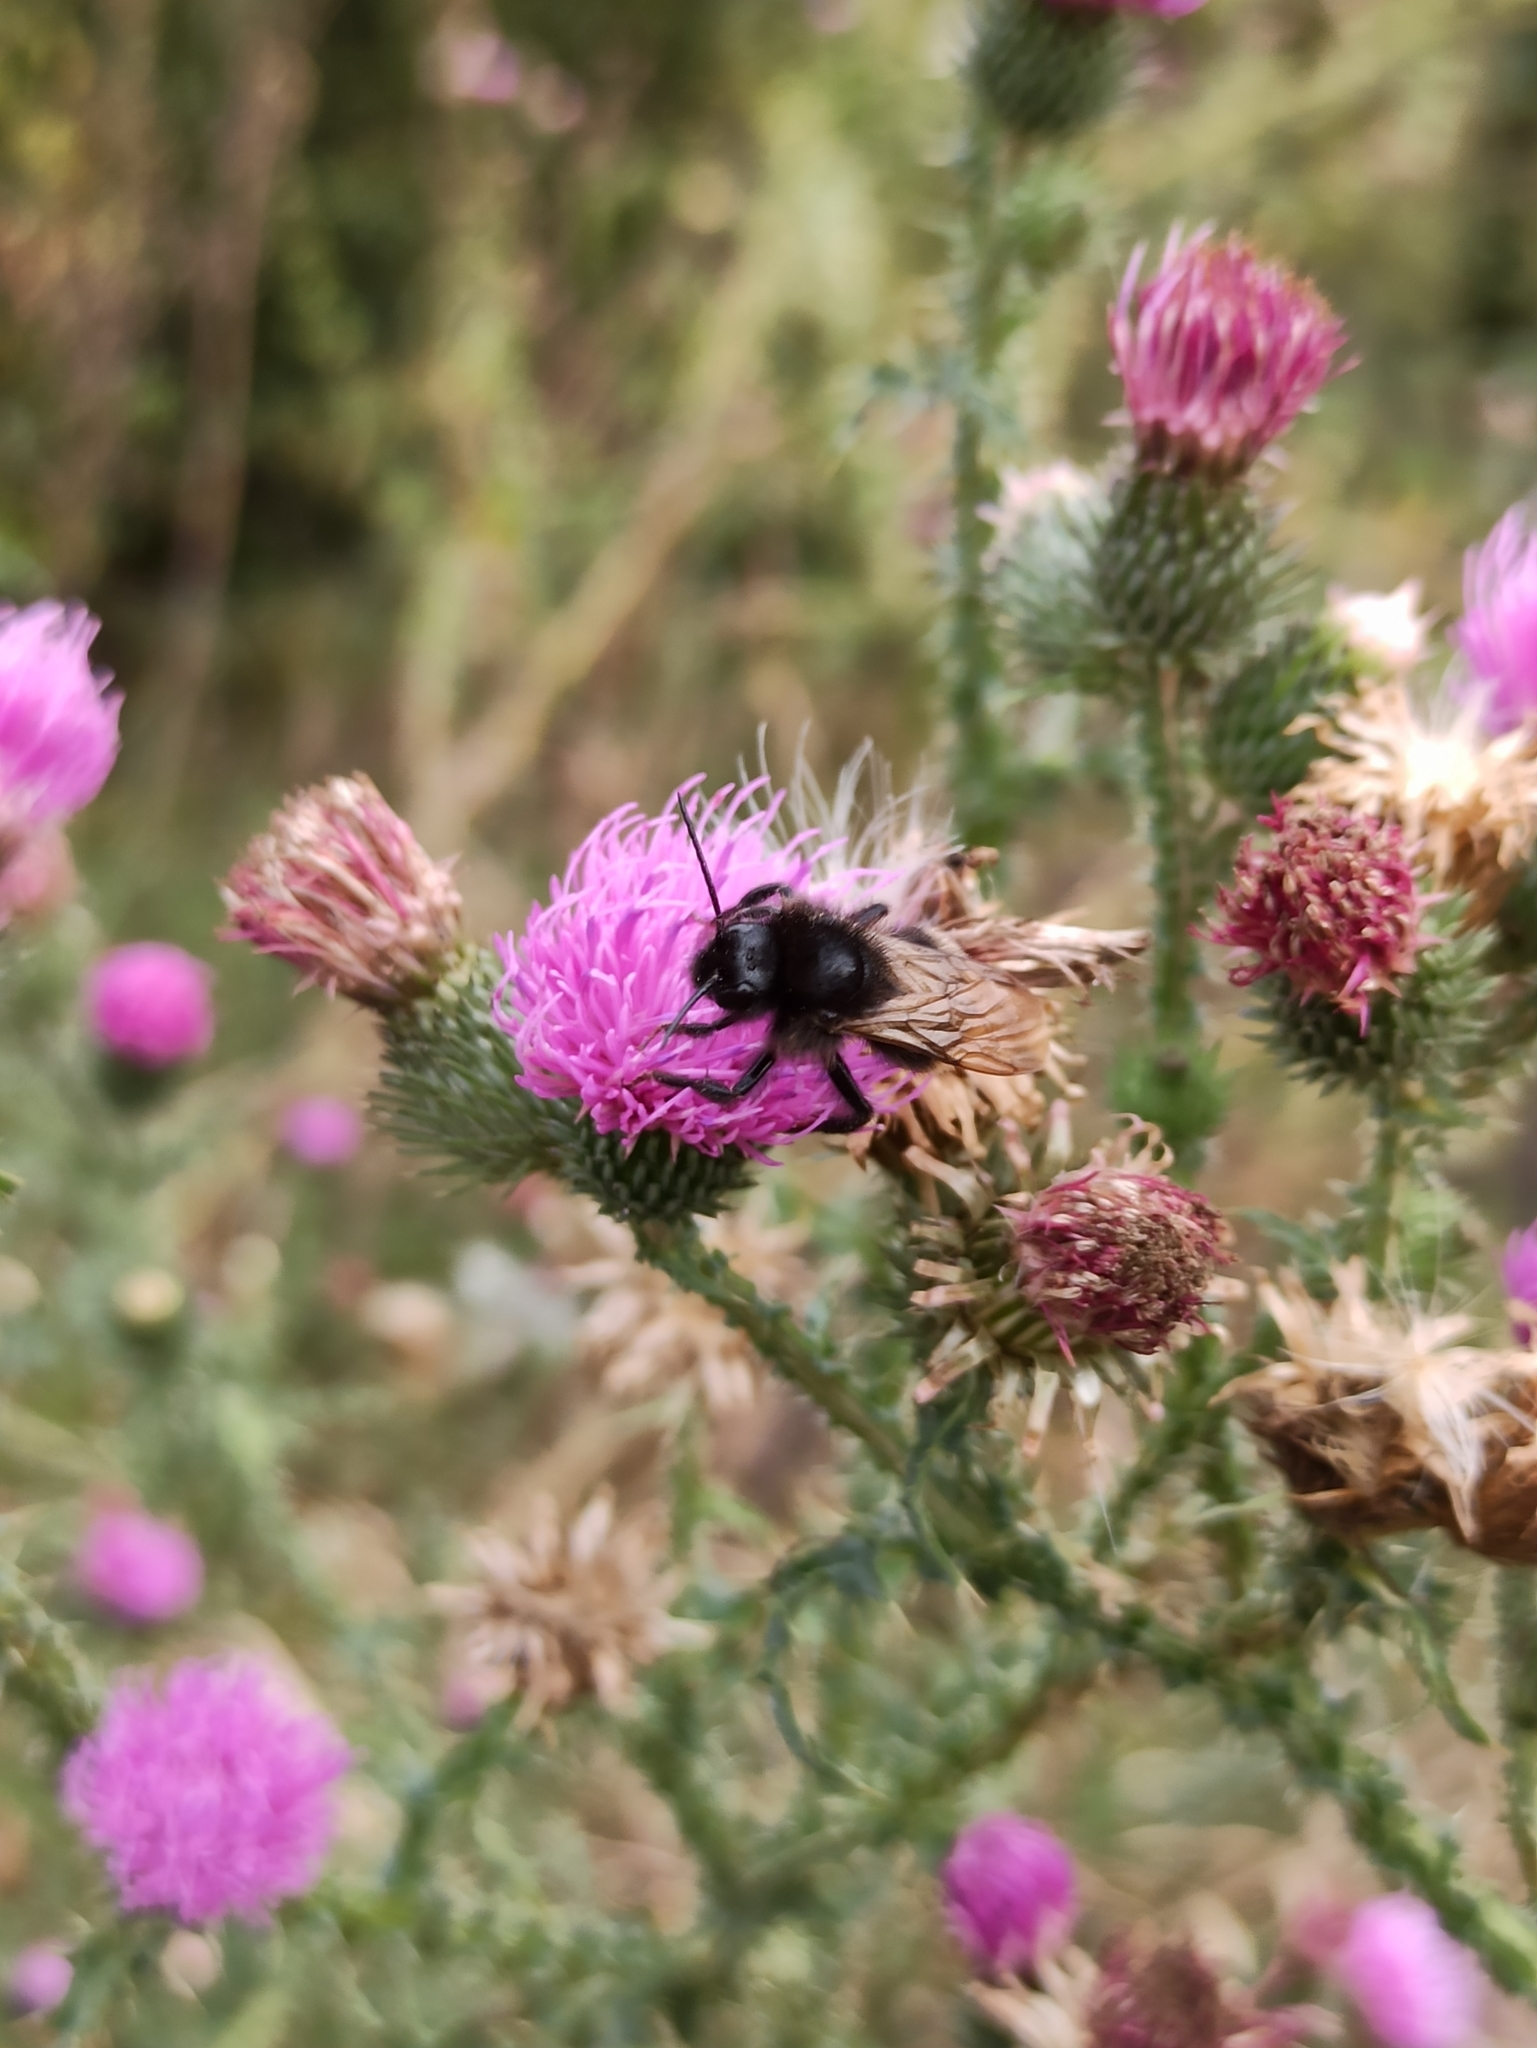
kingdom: Animalia
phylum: Arthropoda
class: Insecta
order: Hymenoptera
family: Apidae
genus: Bombus
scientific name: Bombus
